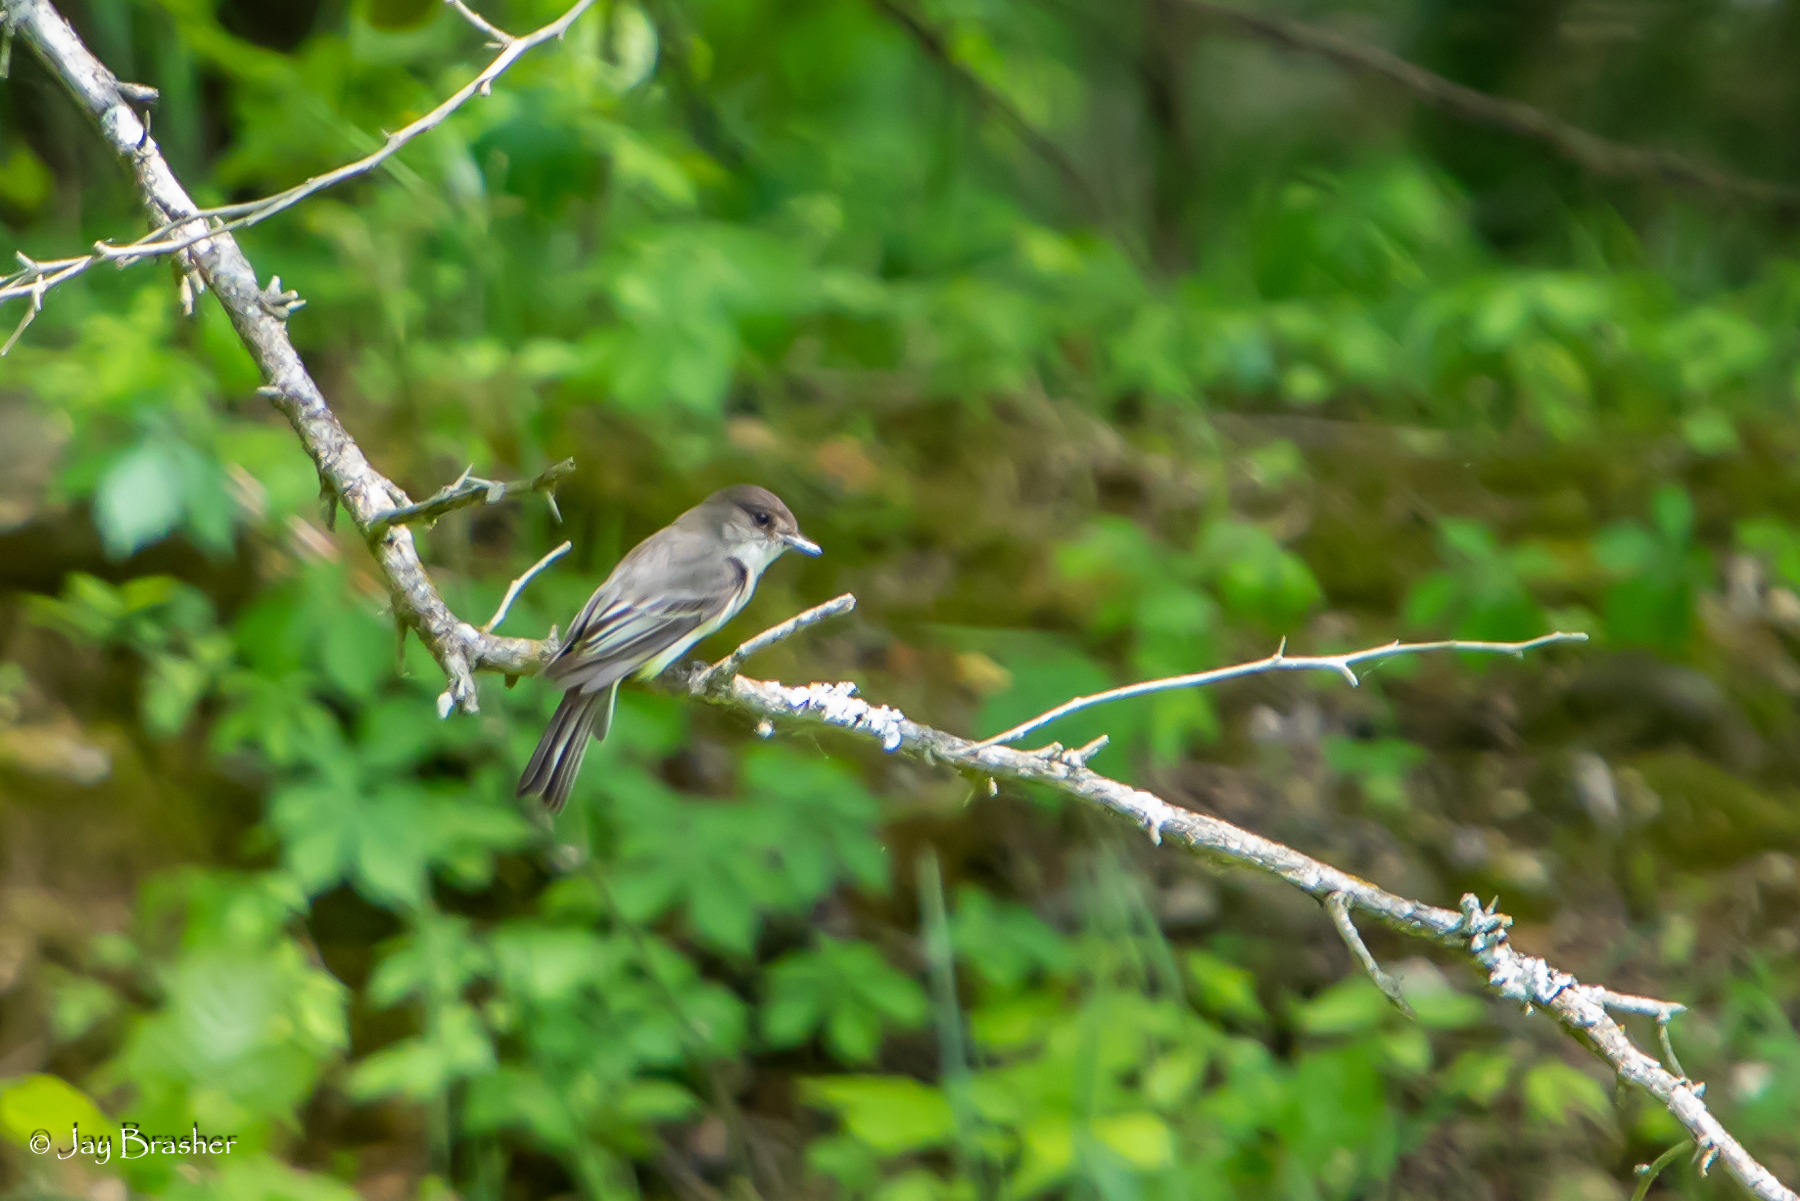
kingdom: Animalia
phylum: Chordata
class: Aves
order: Passeriformes
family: Tyrannidae
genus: Sayornis
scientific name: Sayornis phoebe
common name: Eastern phoebe
